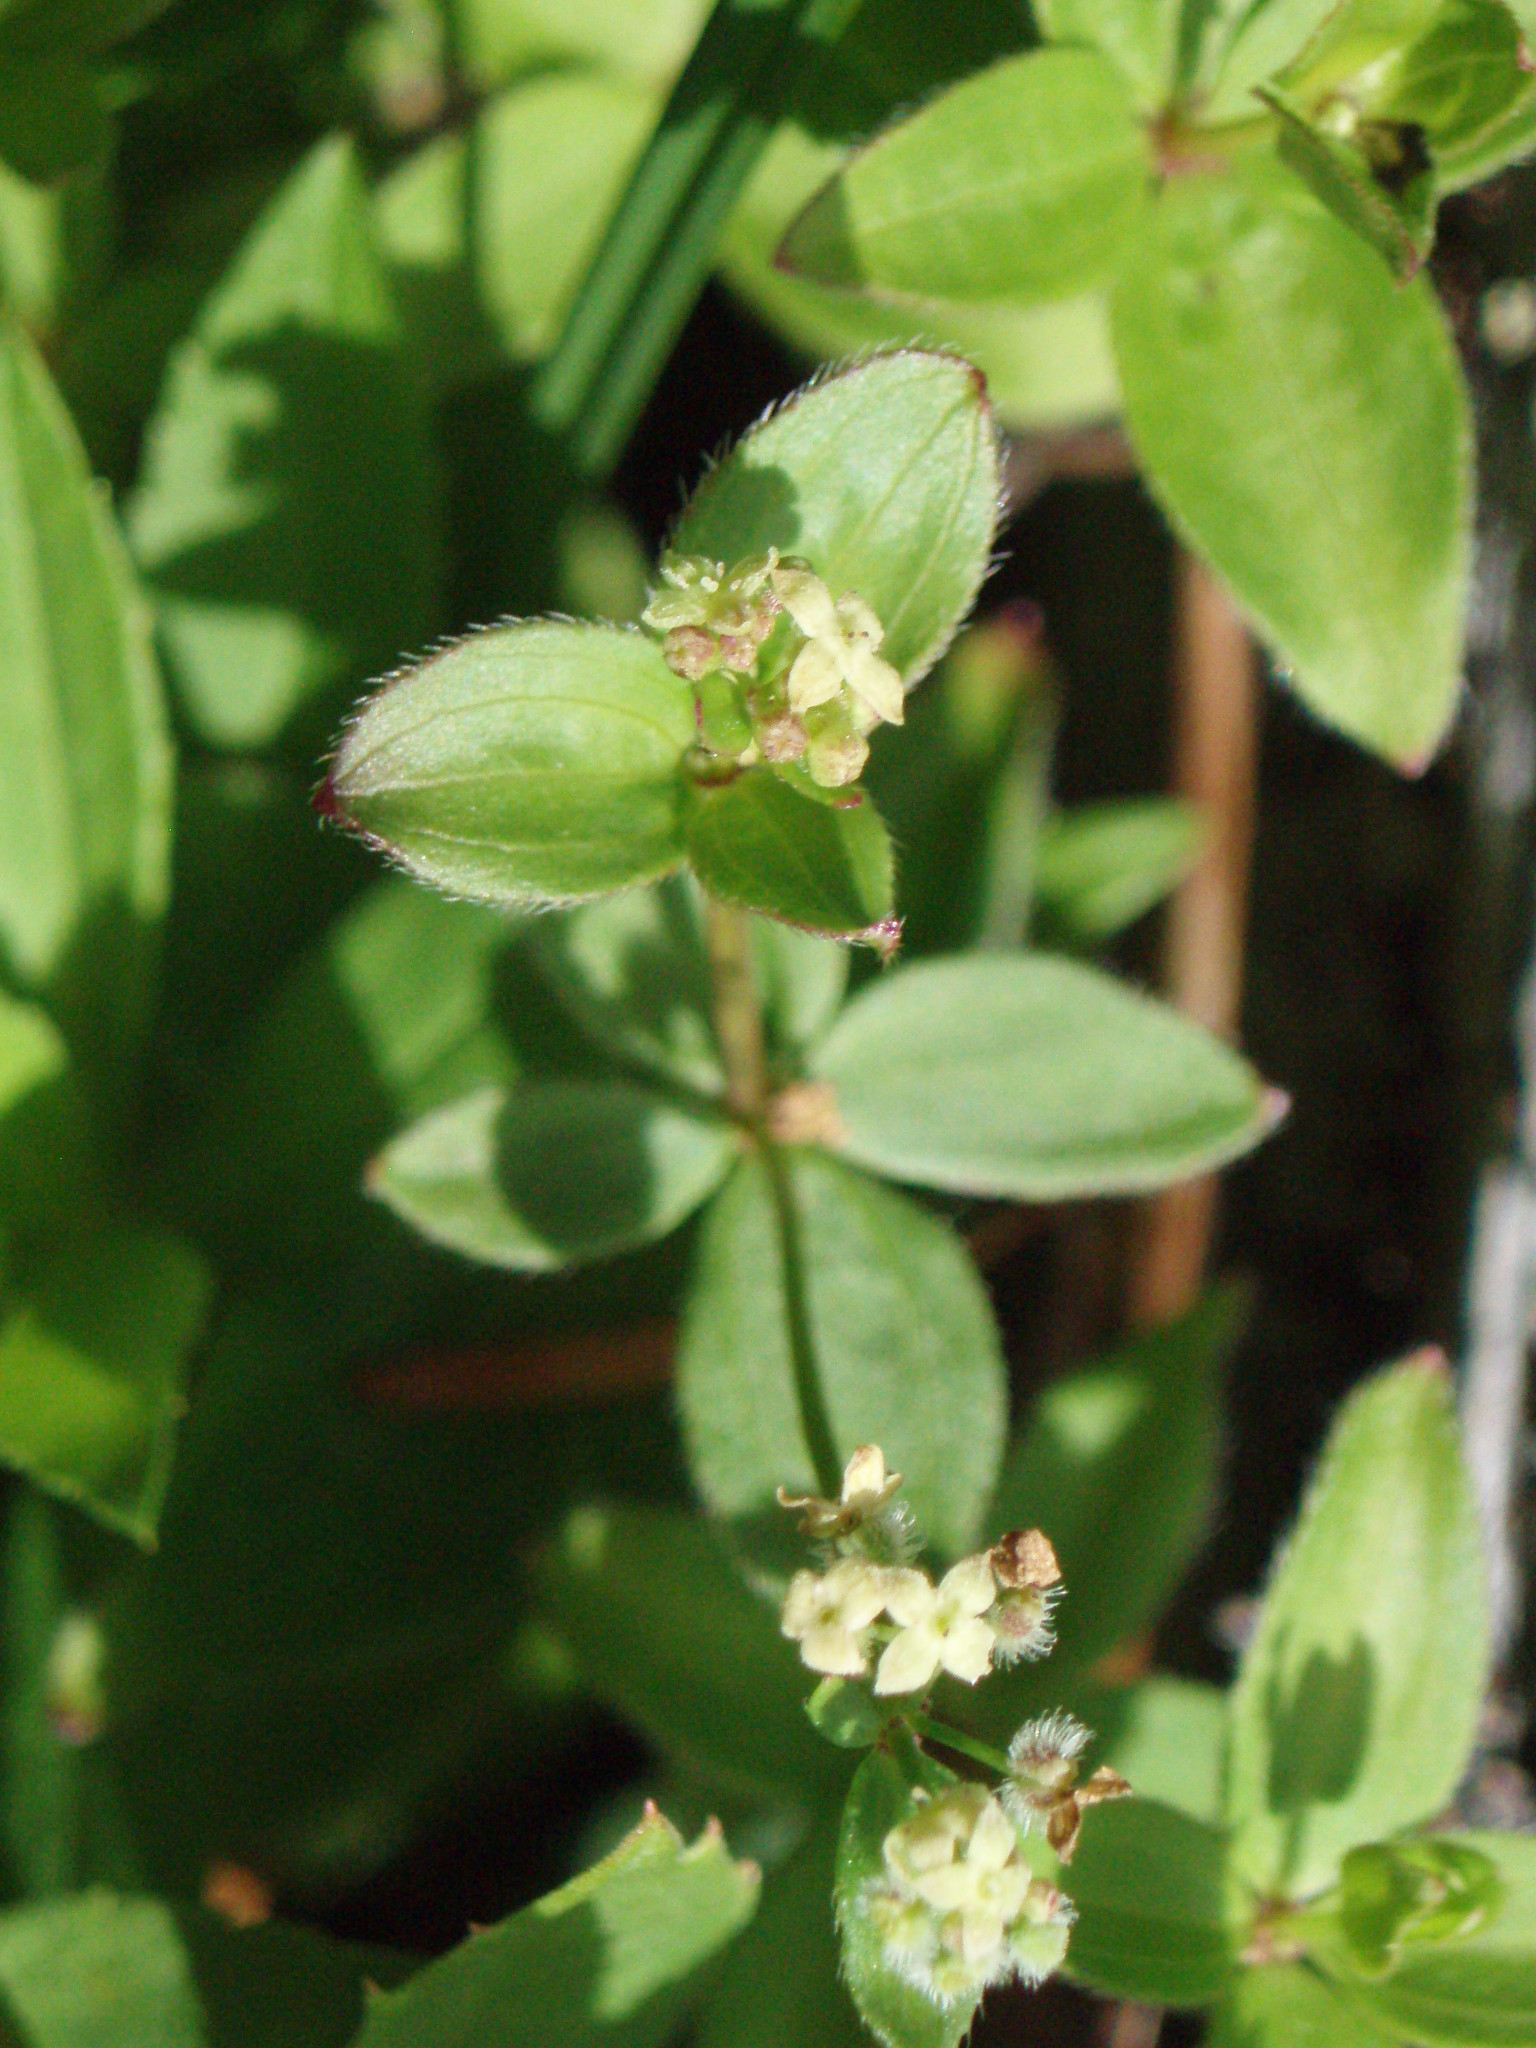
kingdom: Plantae
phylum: Tracheophyta
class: Magnoliopsida
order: Gentianales
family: Rubiaceae
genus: Galium
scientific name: Galium oreganum
